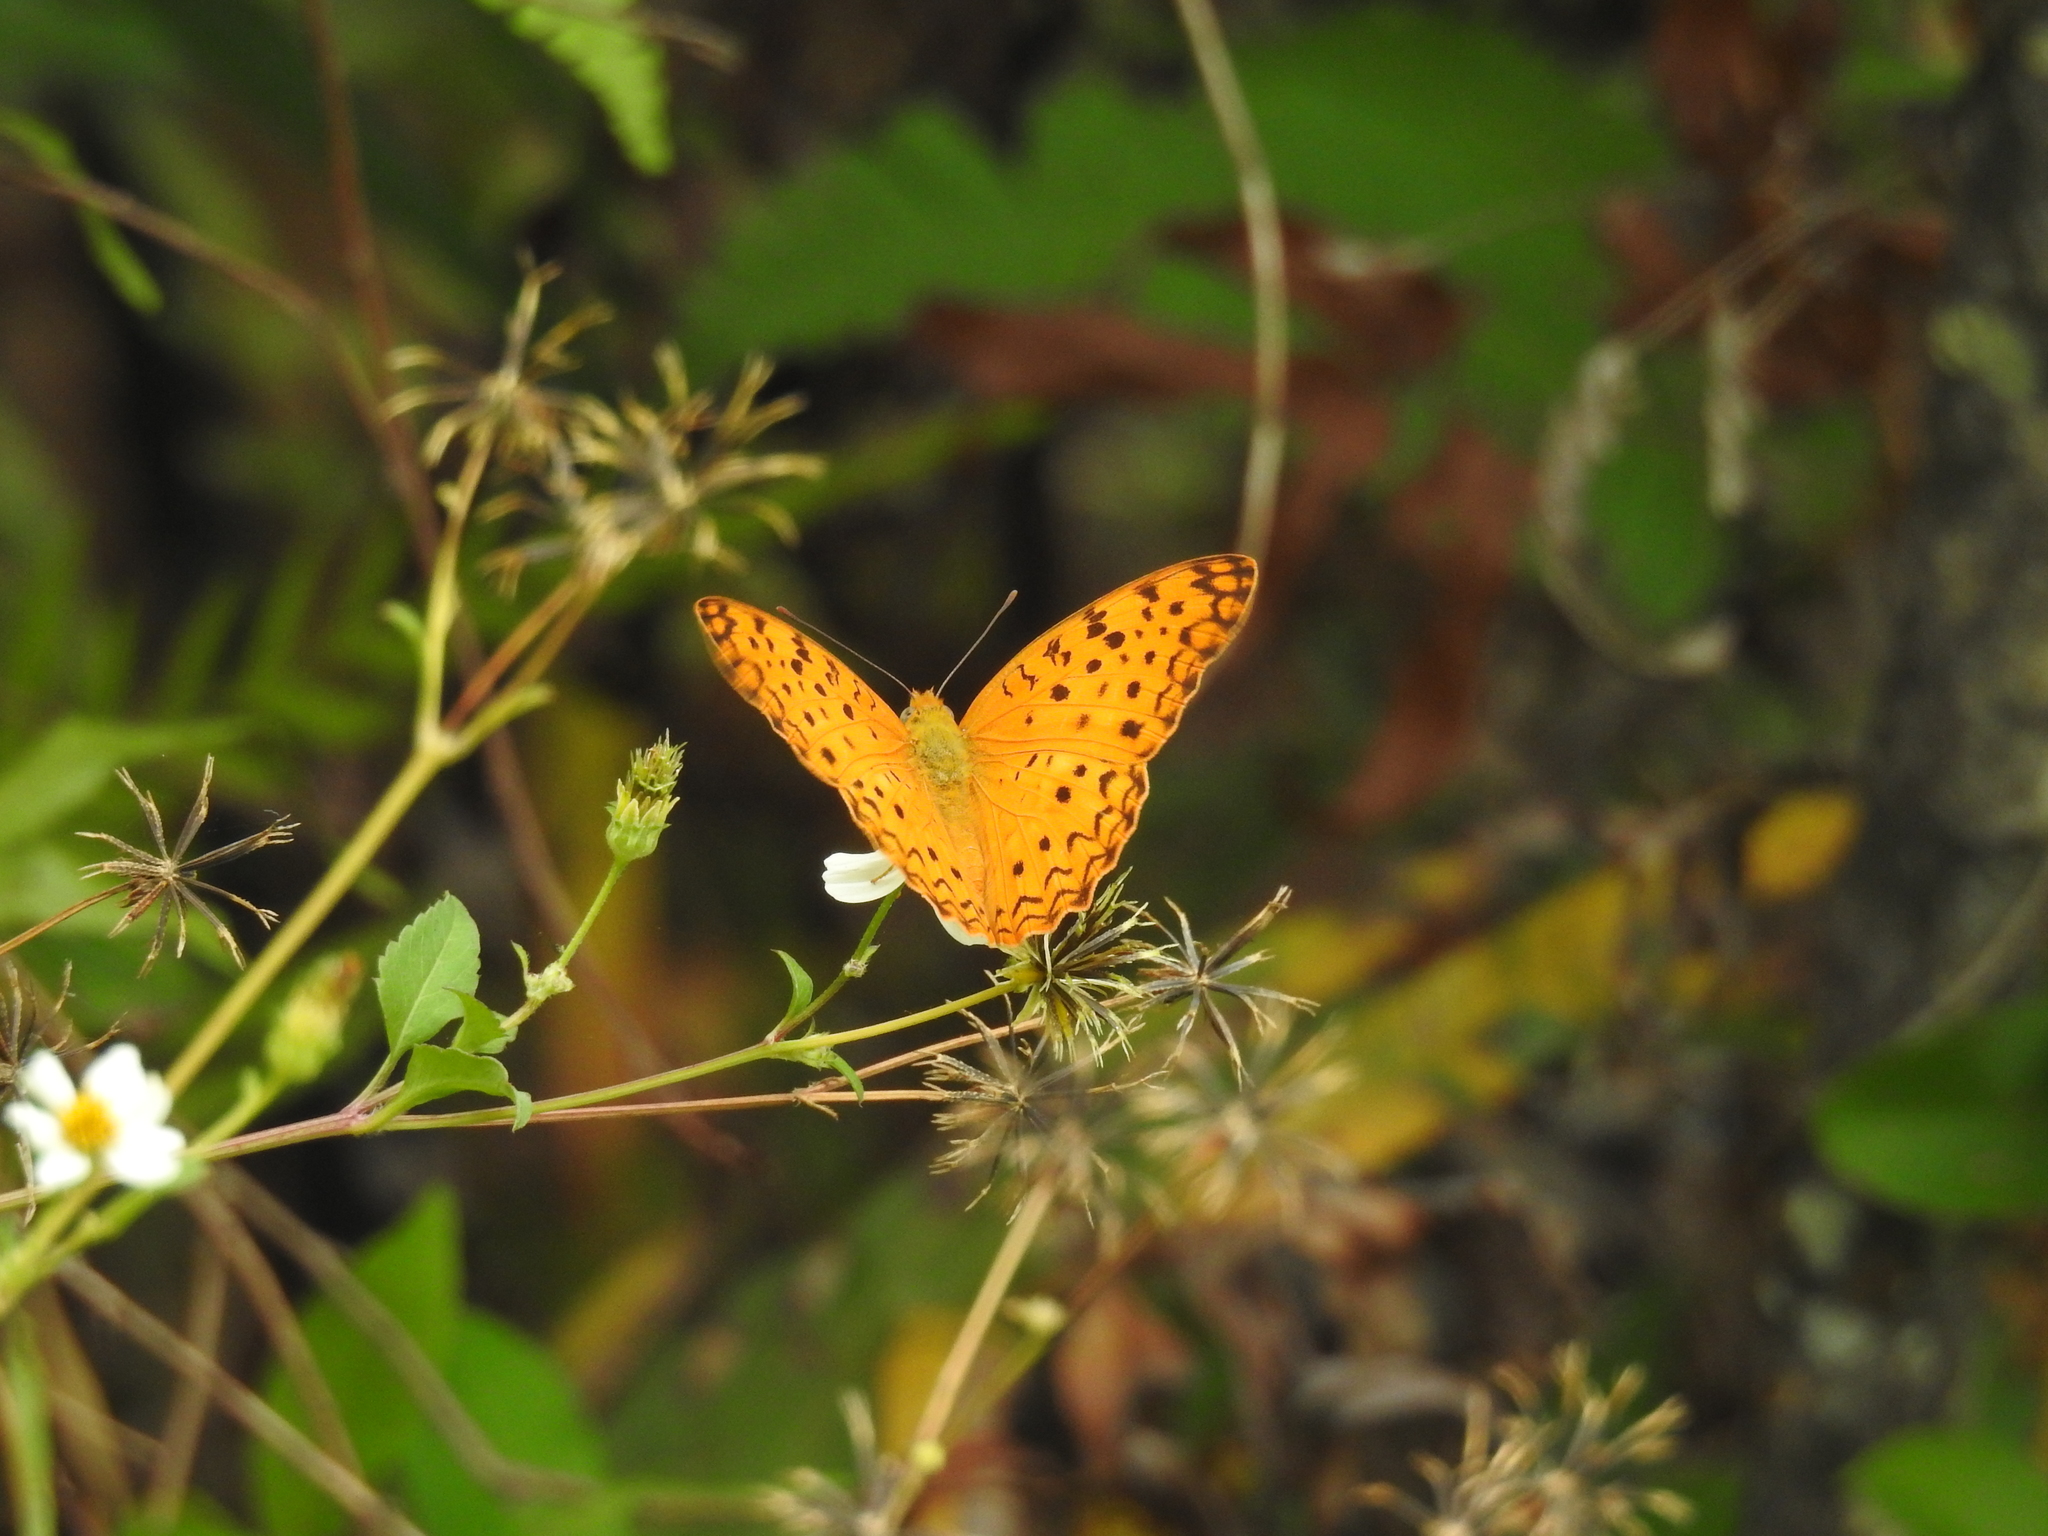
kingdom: Animalia
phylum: Arthropoda
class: Insecta
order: Lepidoptera
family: Nymphalidae
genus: Phalanta
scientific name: Phalanta phalantha
